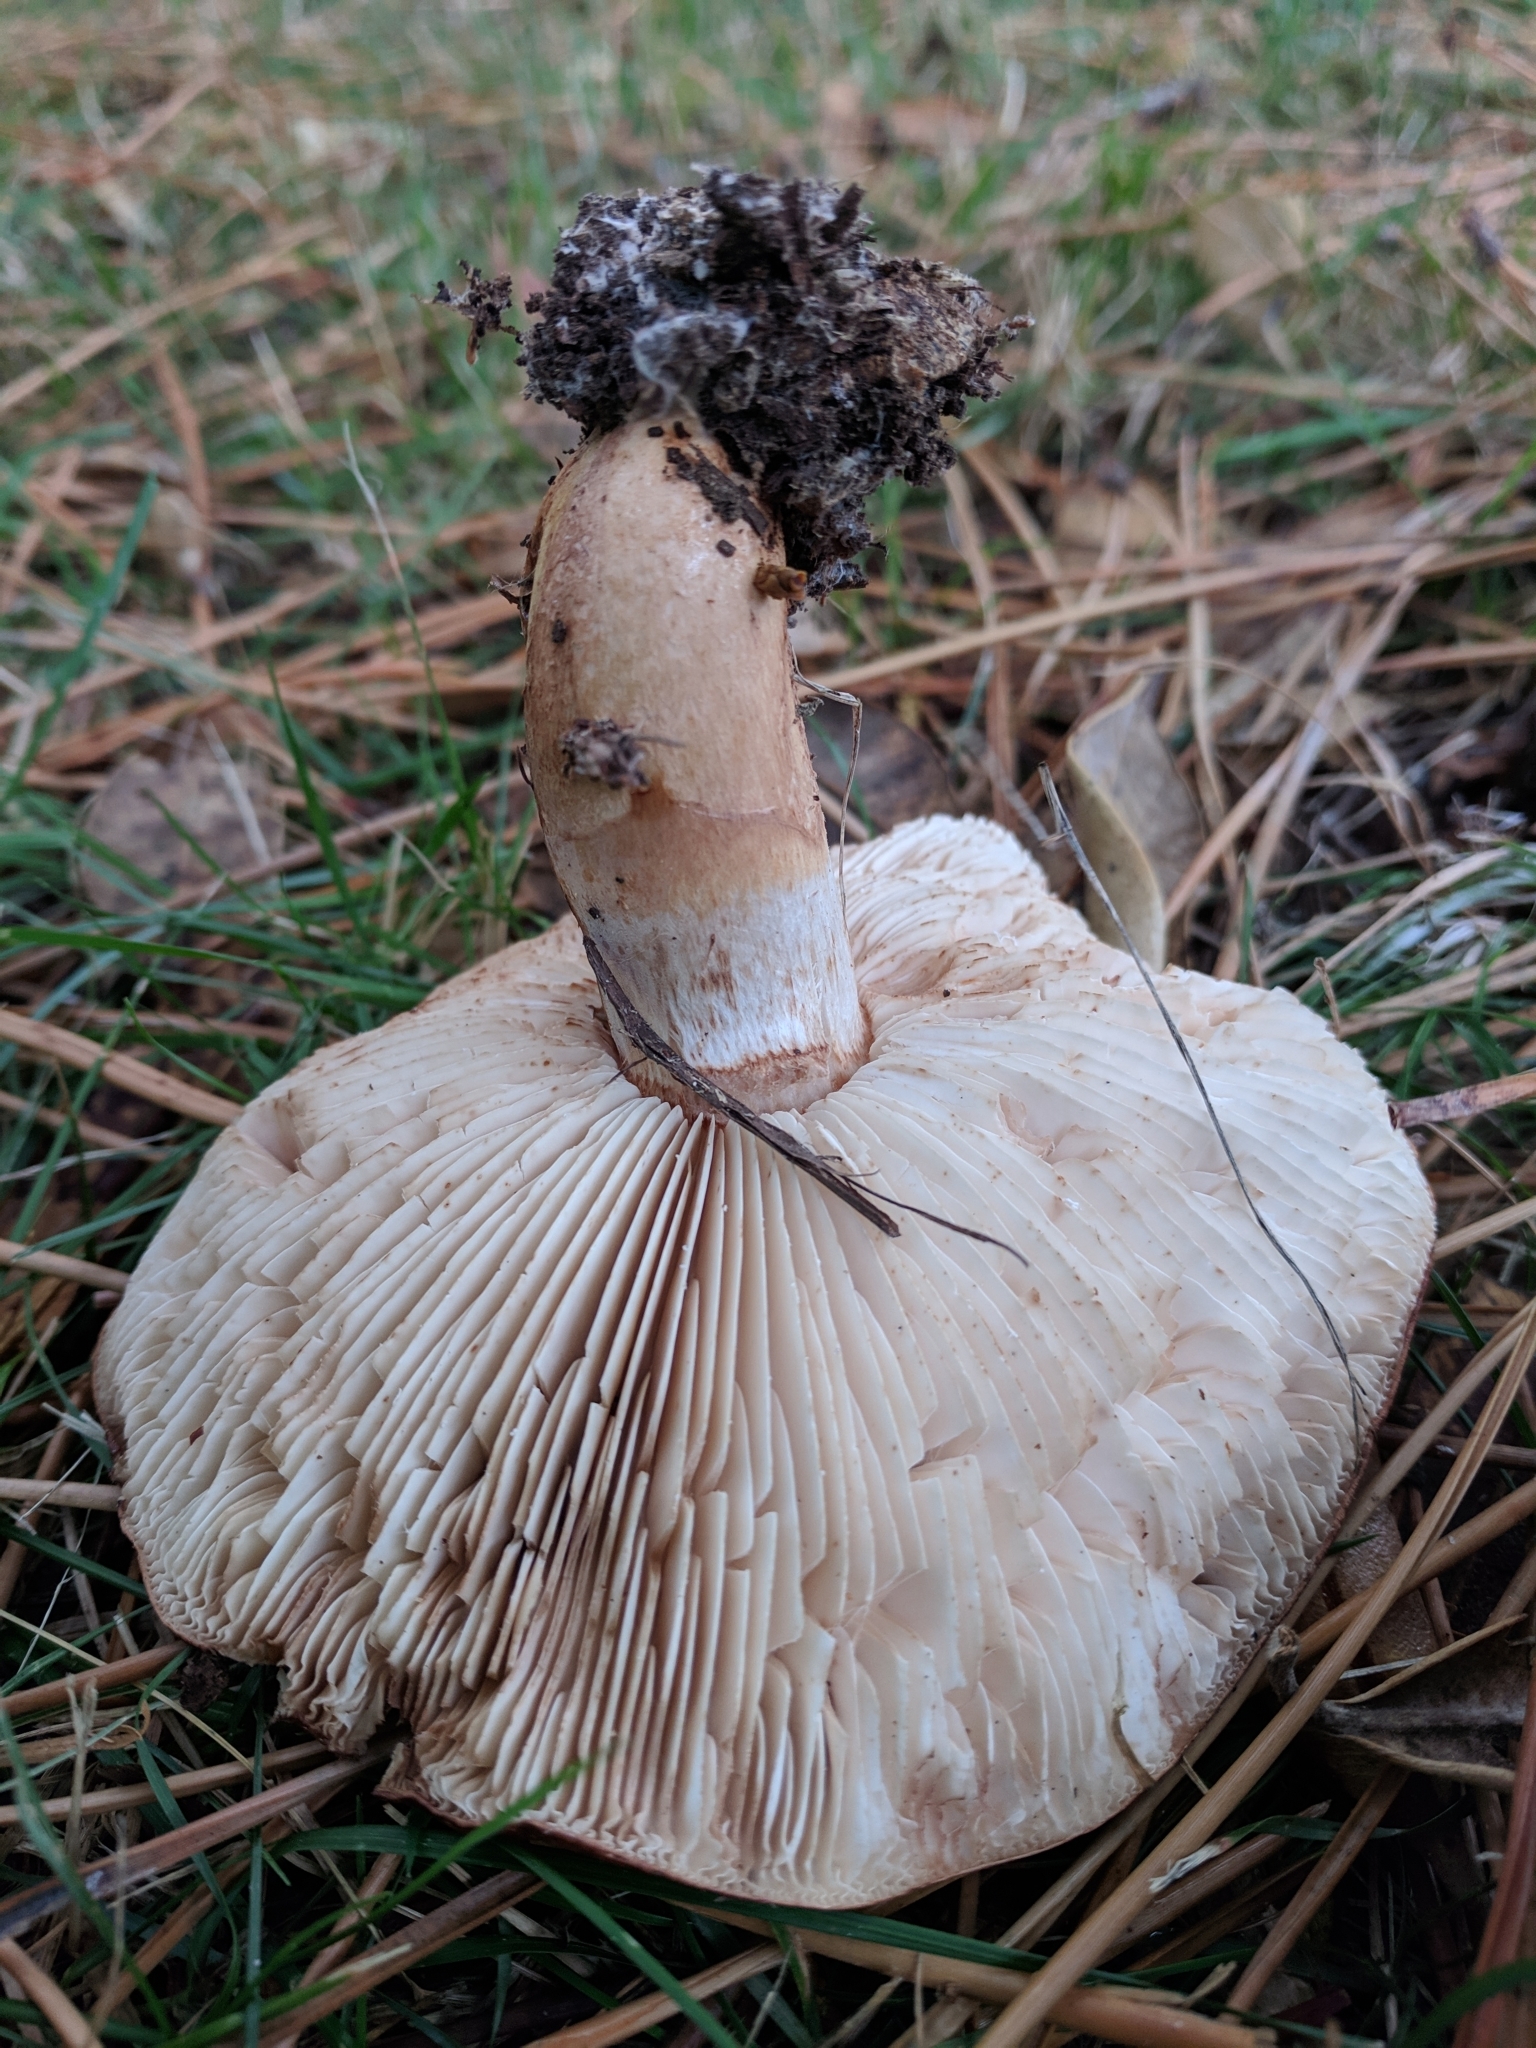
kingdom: Fungi
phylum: Basidiomycota
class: Agaricomycetes
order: Agaricales
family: Tricholomataceae
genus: Tricholoma
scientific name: Tricholoma batschii
